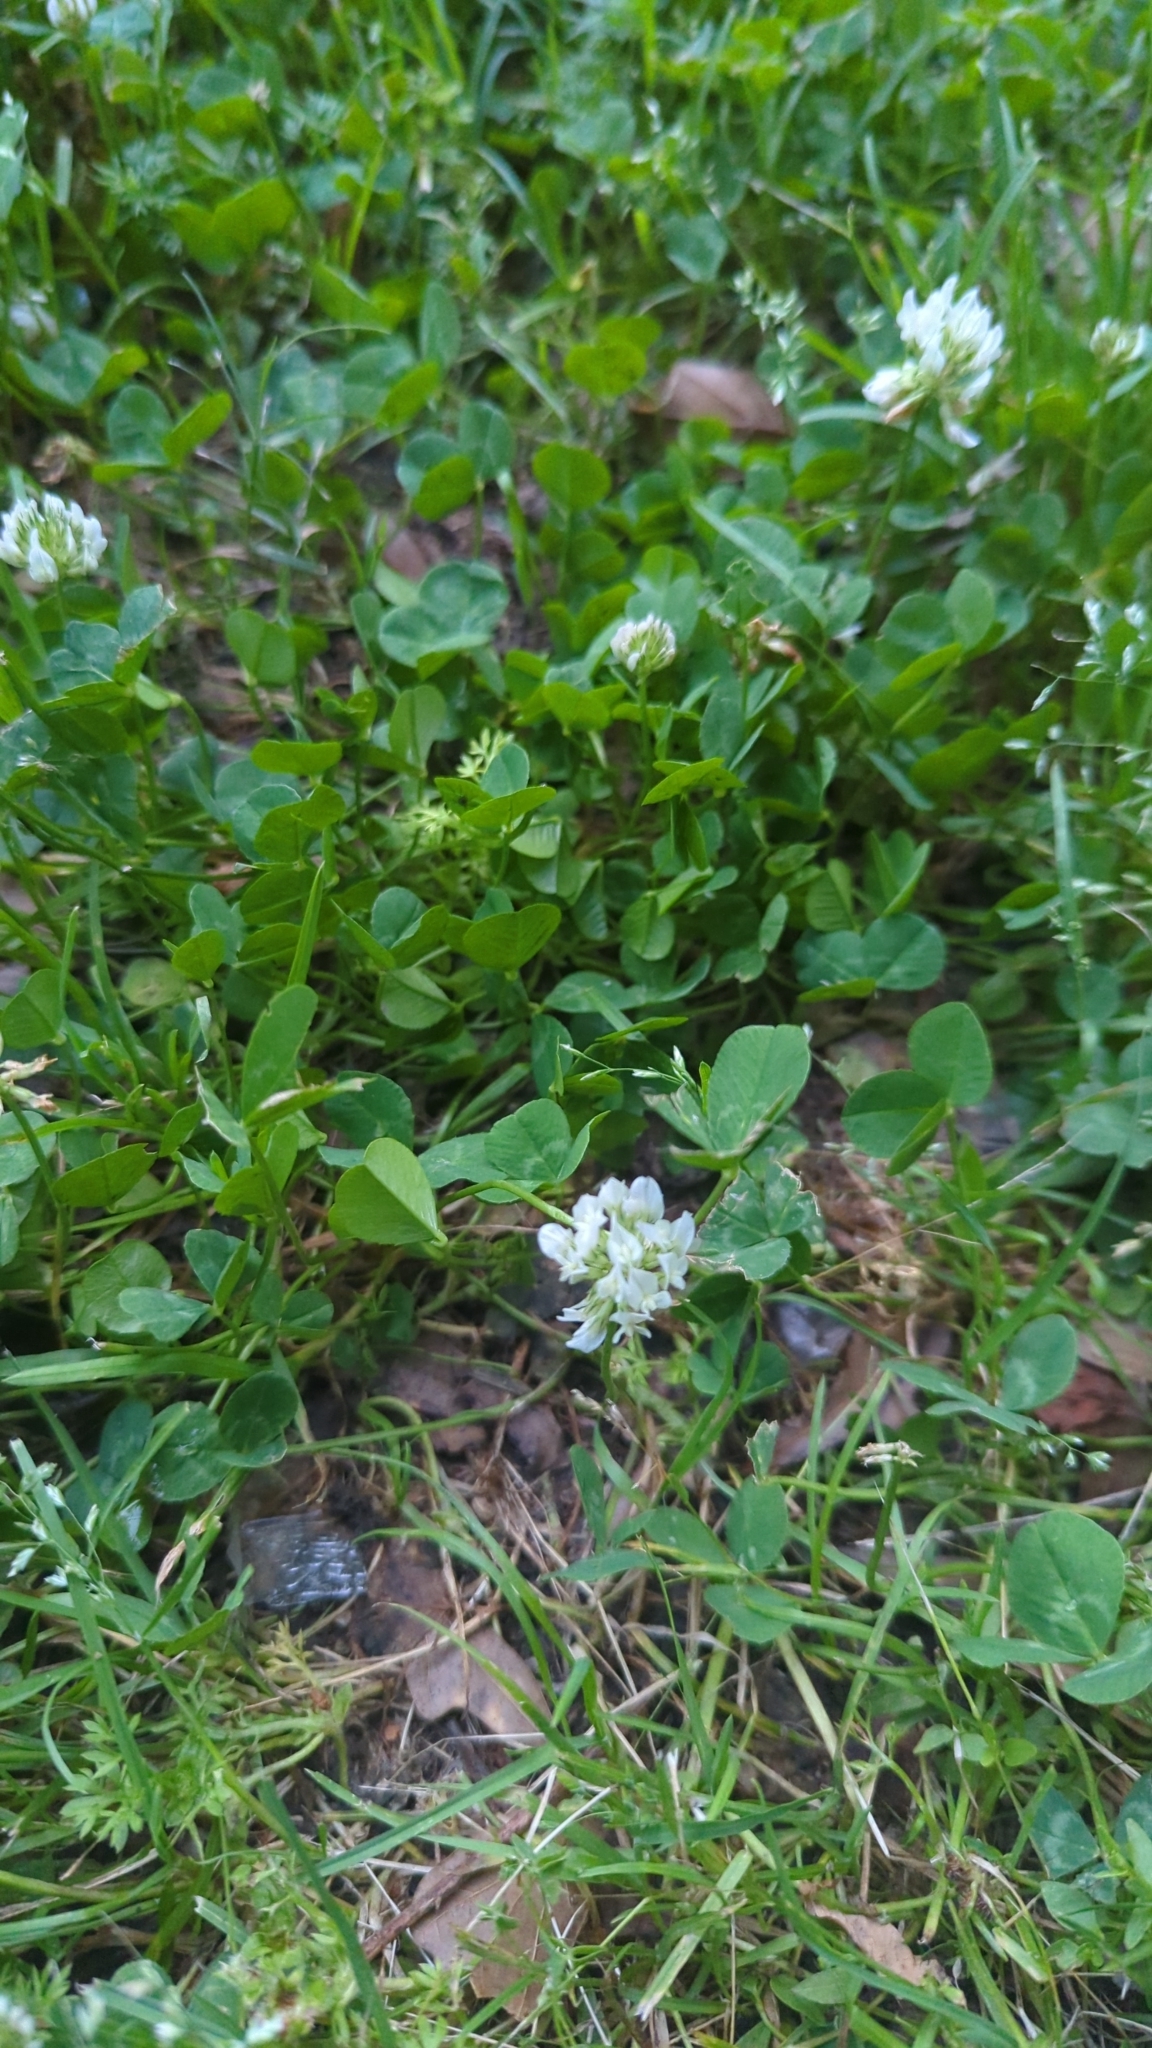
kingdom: Plantae
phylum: Tracheophyta
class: Magnoliopsida
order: Fabales
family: Fabaceae
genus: Trifolium
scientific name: Trifolium repens
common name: White clover
